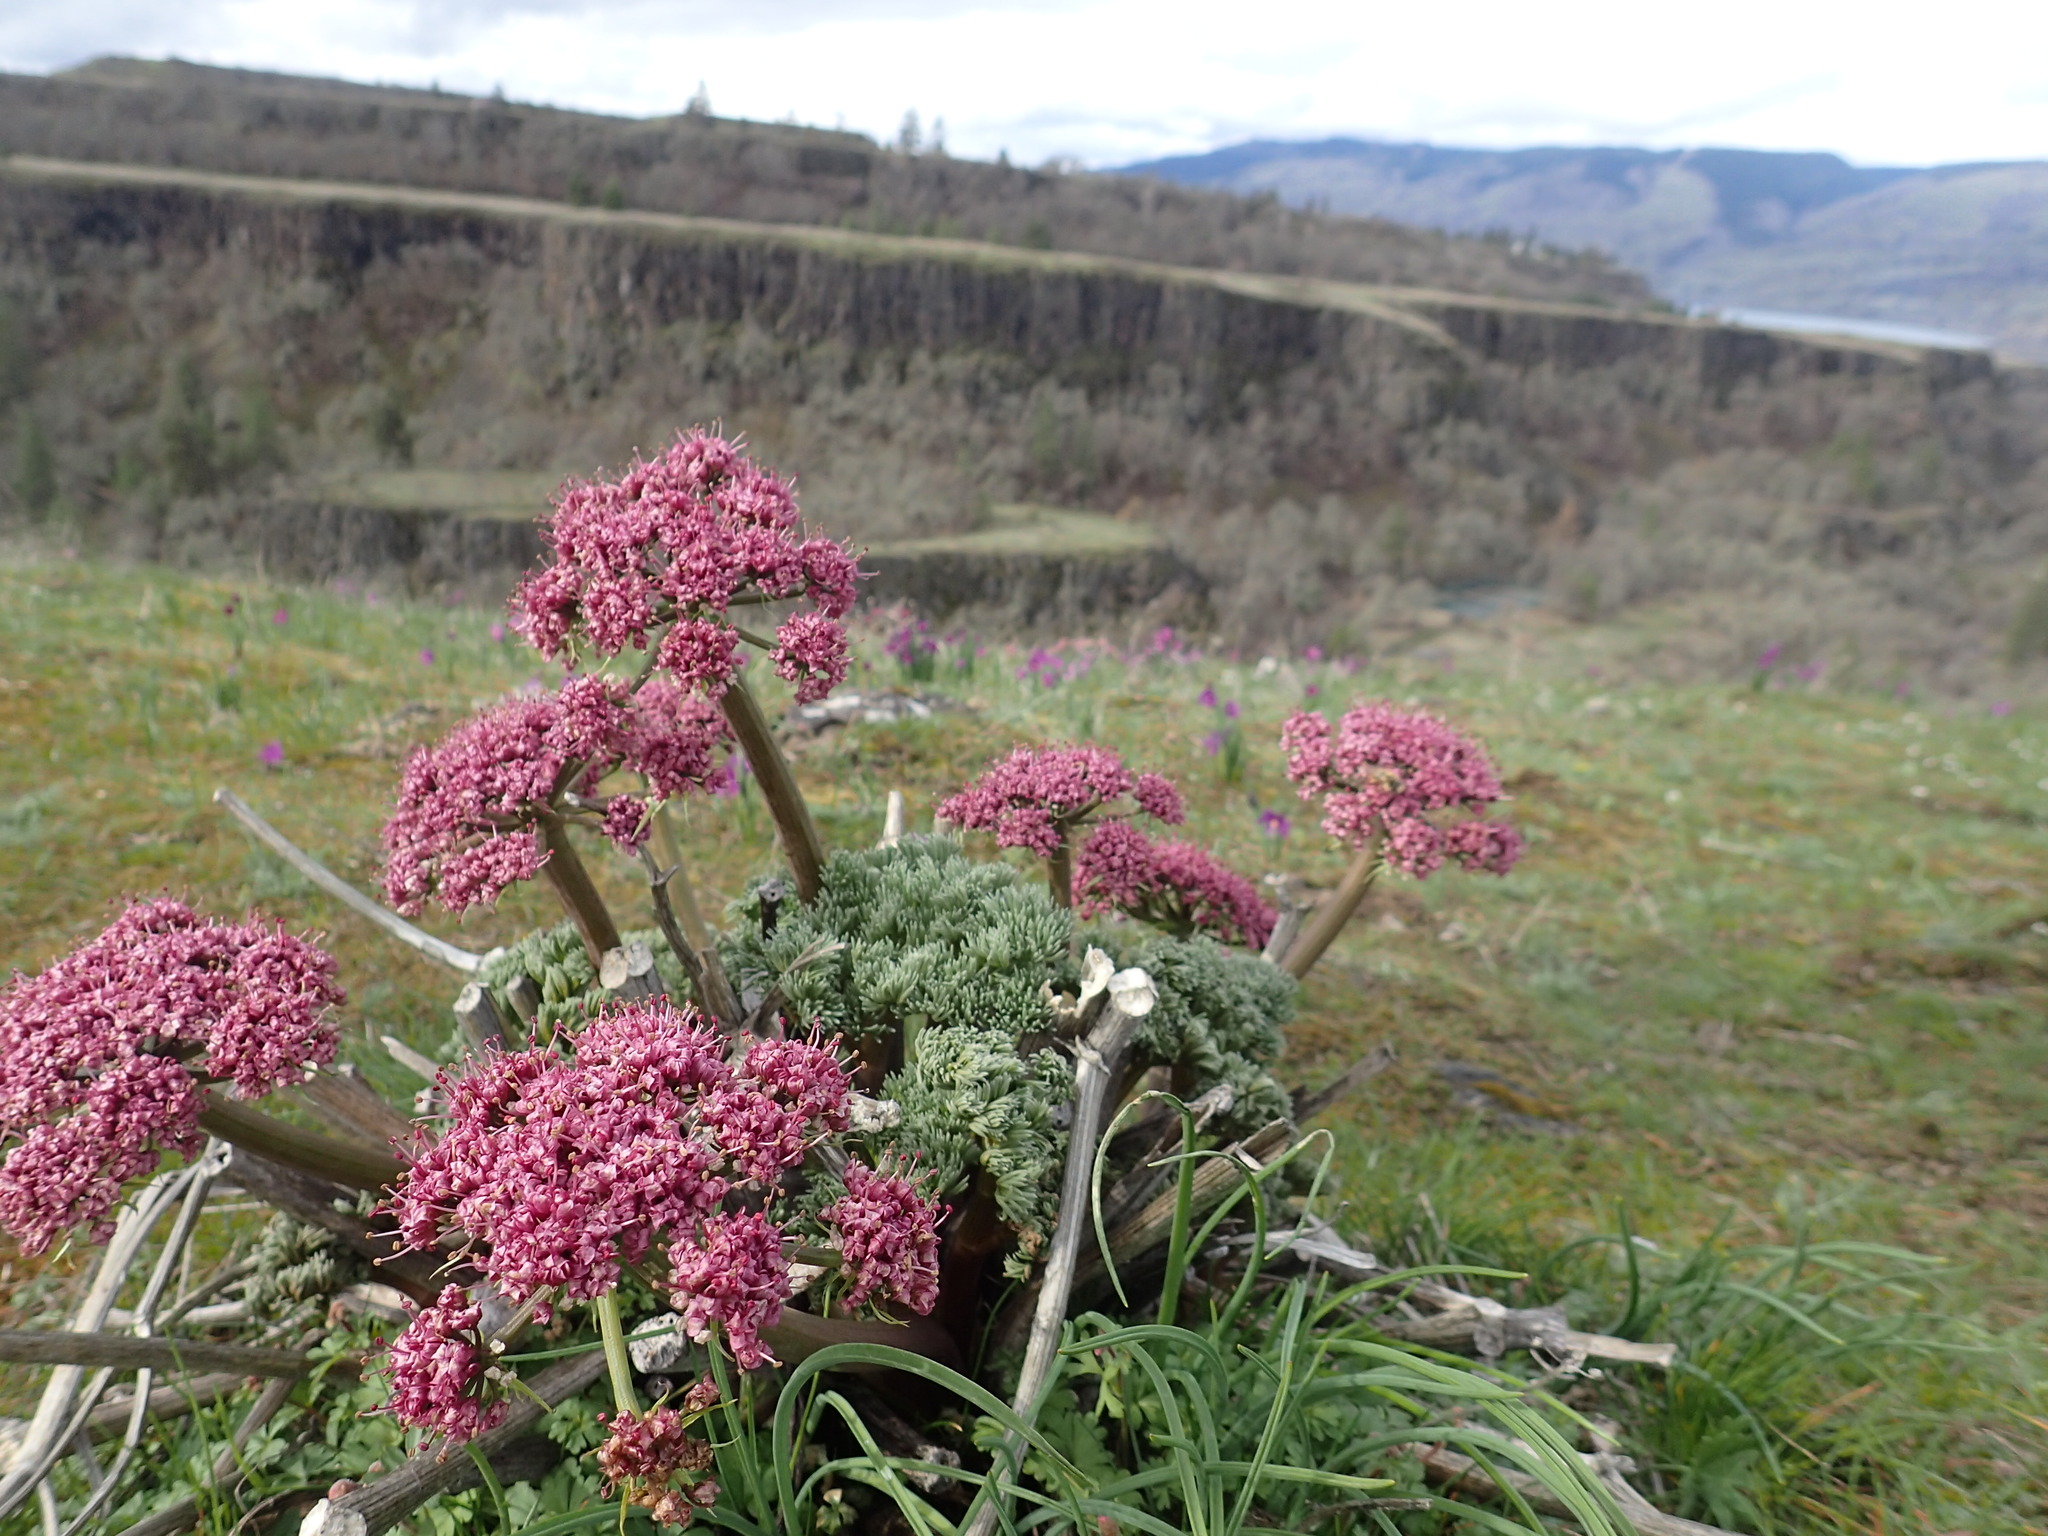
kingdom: Plantae
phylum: Tracheophyta
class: Magnoliopsida
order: Apiales
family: Apiaceae
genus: Lomatium
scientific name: Lomatium columbianum
